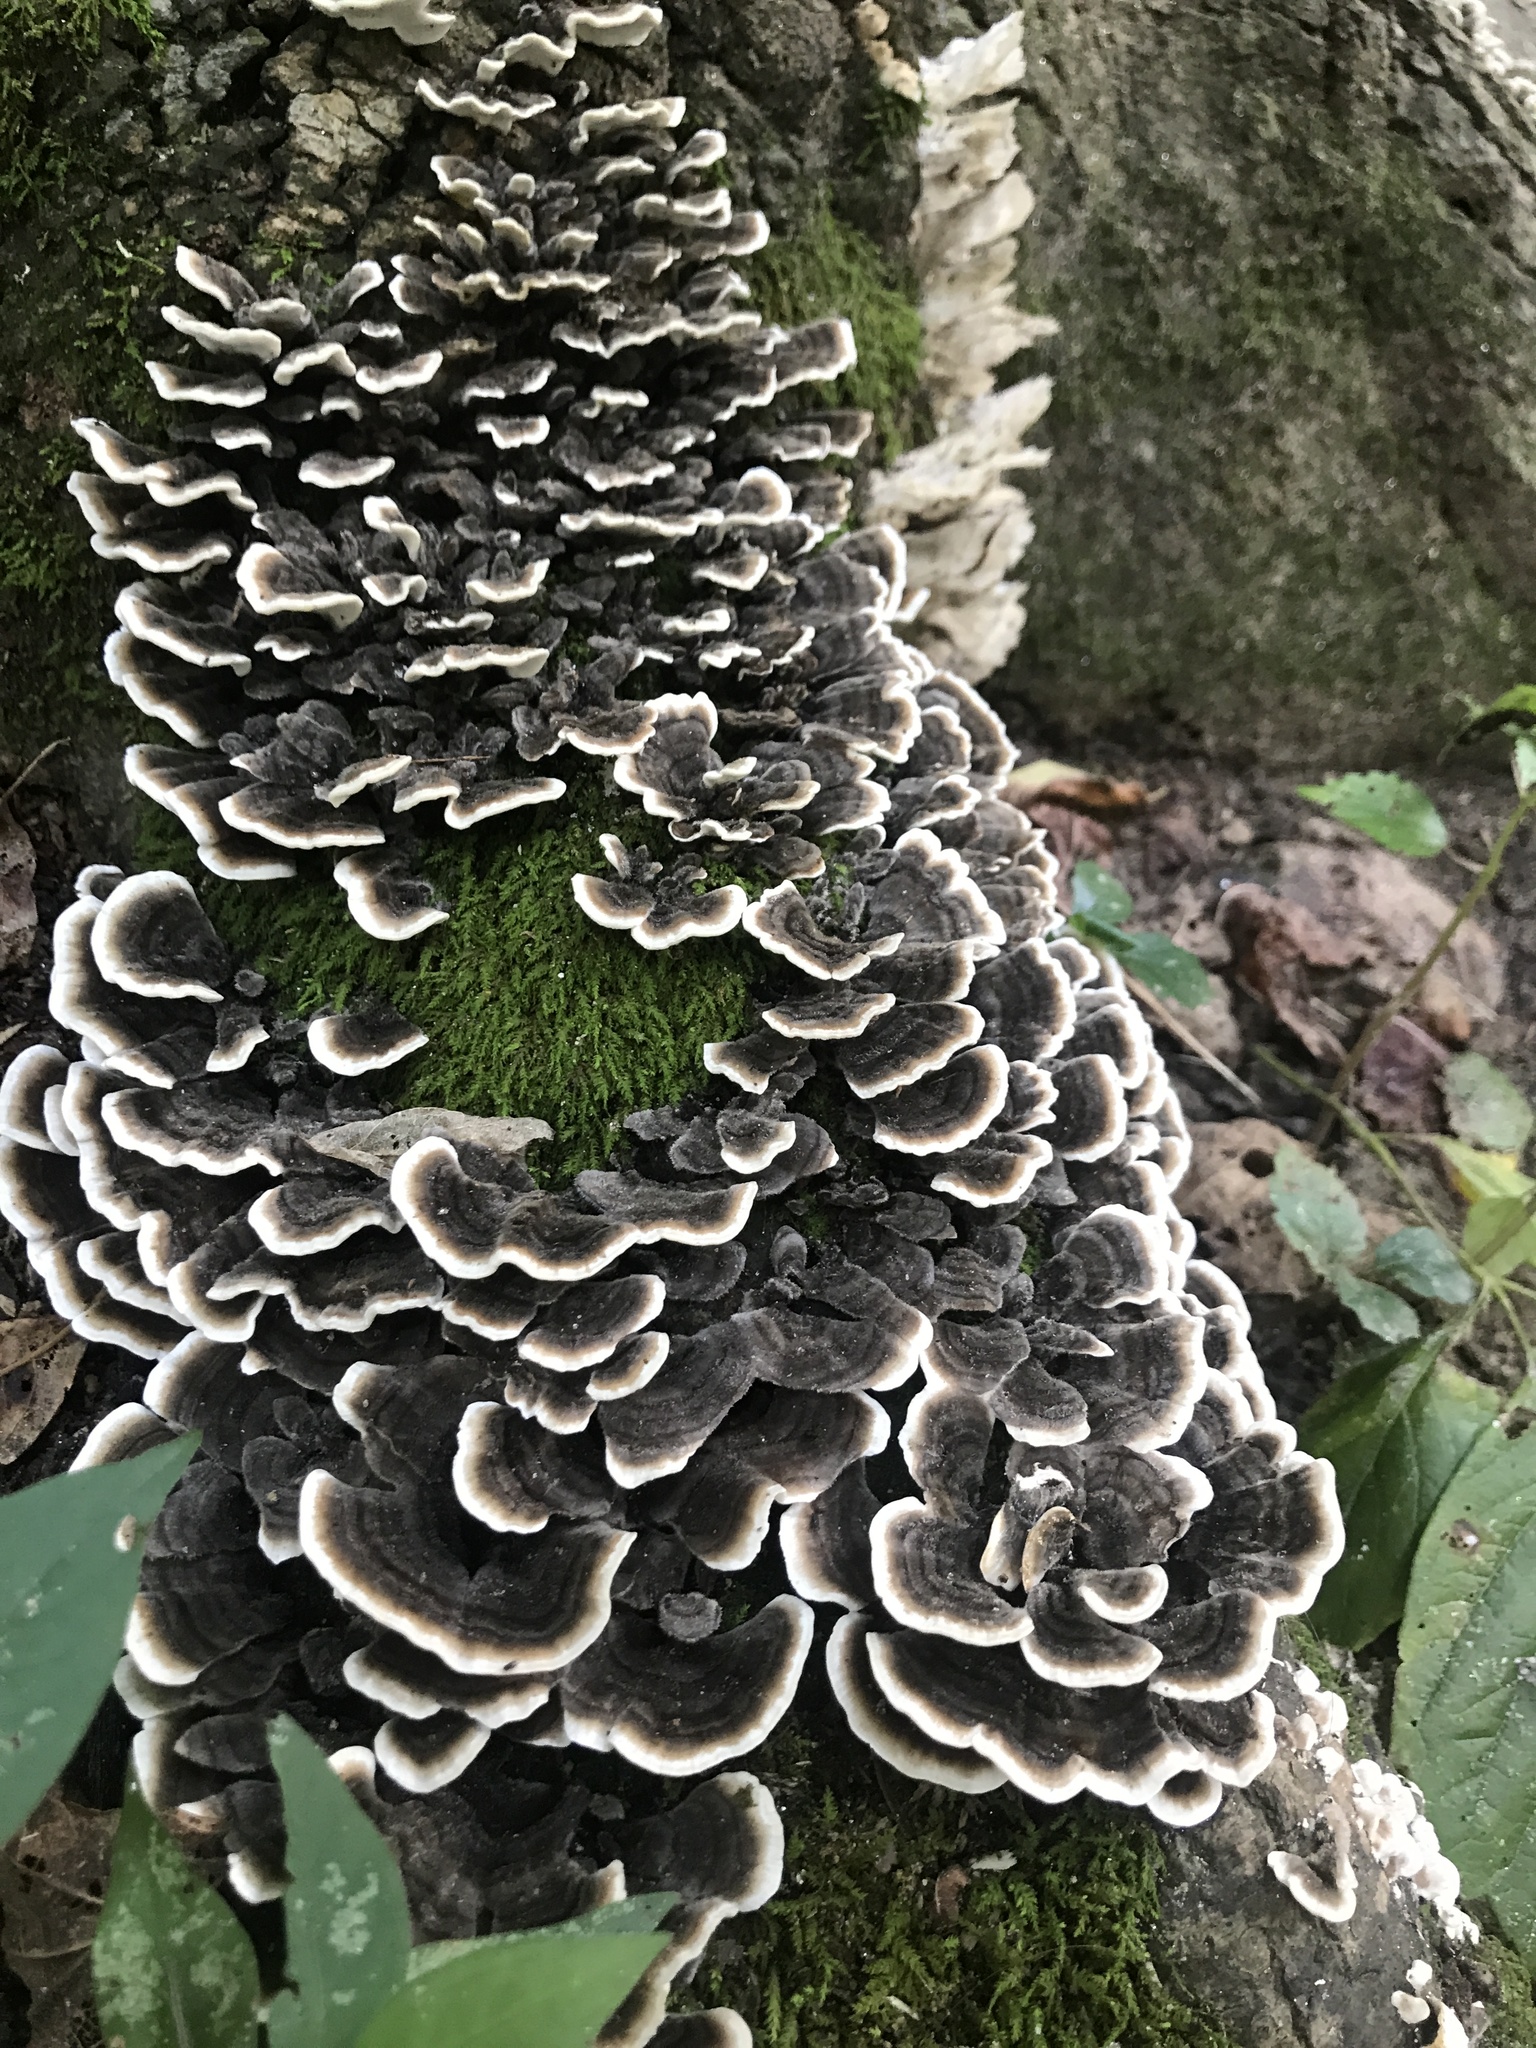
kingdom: Fungi
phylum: Basidiomycota
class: Agaricomycetes
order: Polyporales
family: Polyporaceae
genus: Trametes
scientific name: Trametes versicolor
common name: Turkeytail
